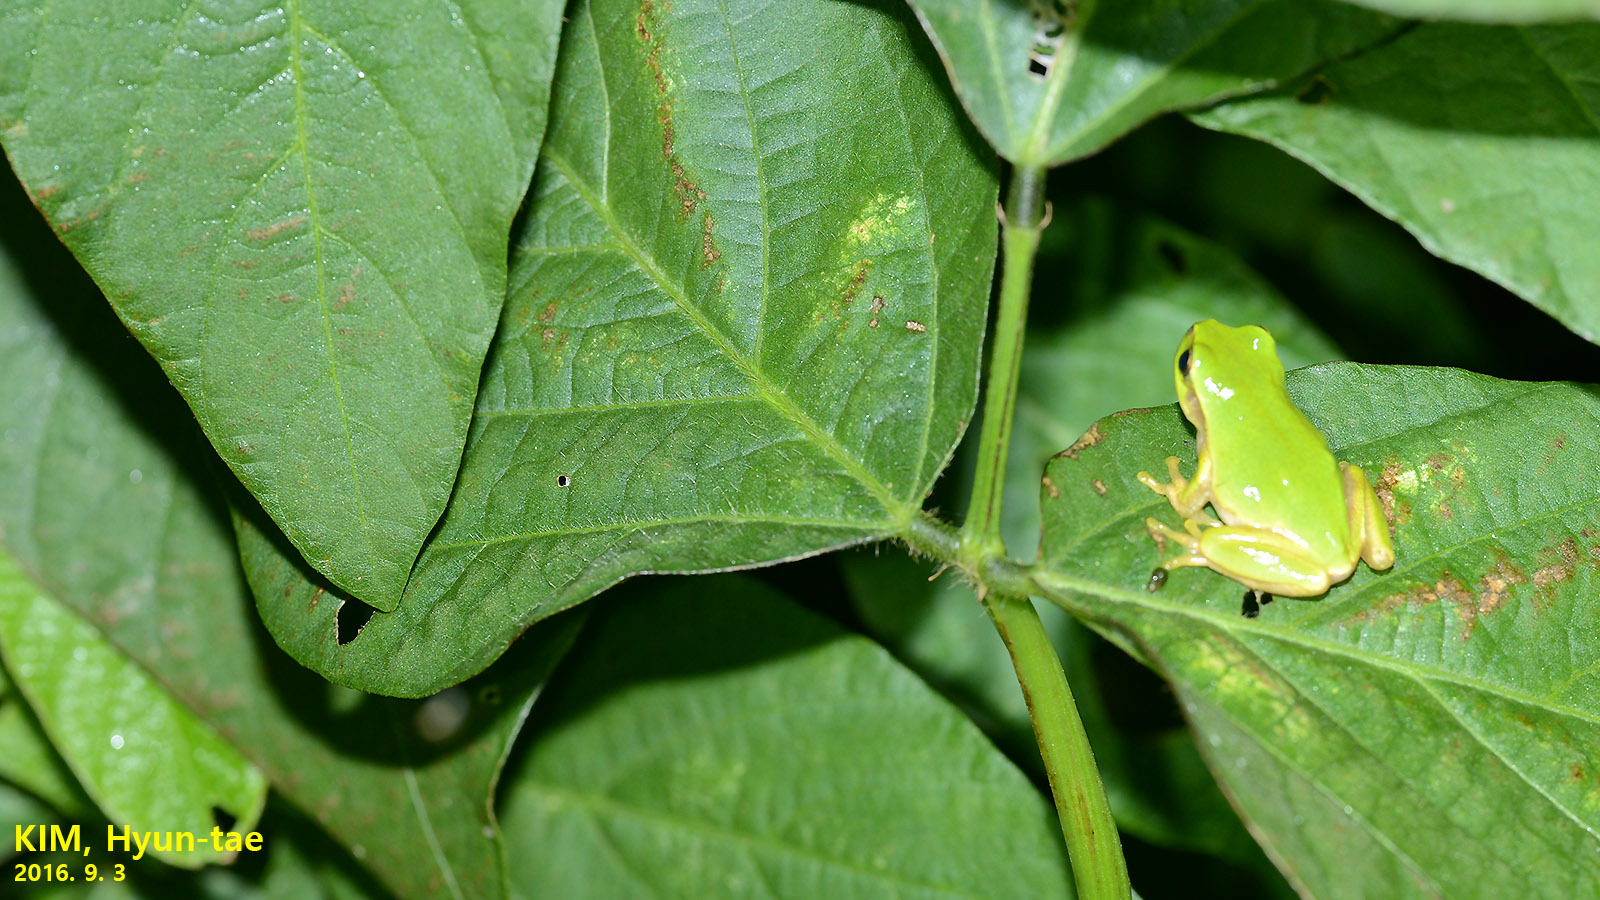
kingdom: Animalia
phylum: Chordata
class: Amphibia
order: Anura
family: Hylidae
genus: Dryophytes
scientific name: Dryophytes japonicus
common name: Japanese treefrog
